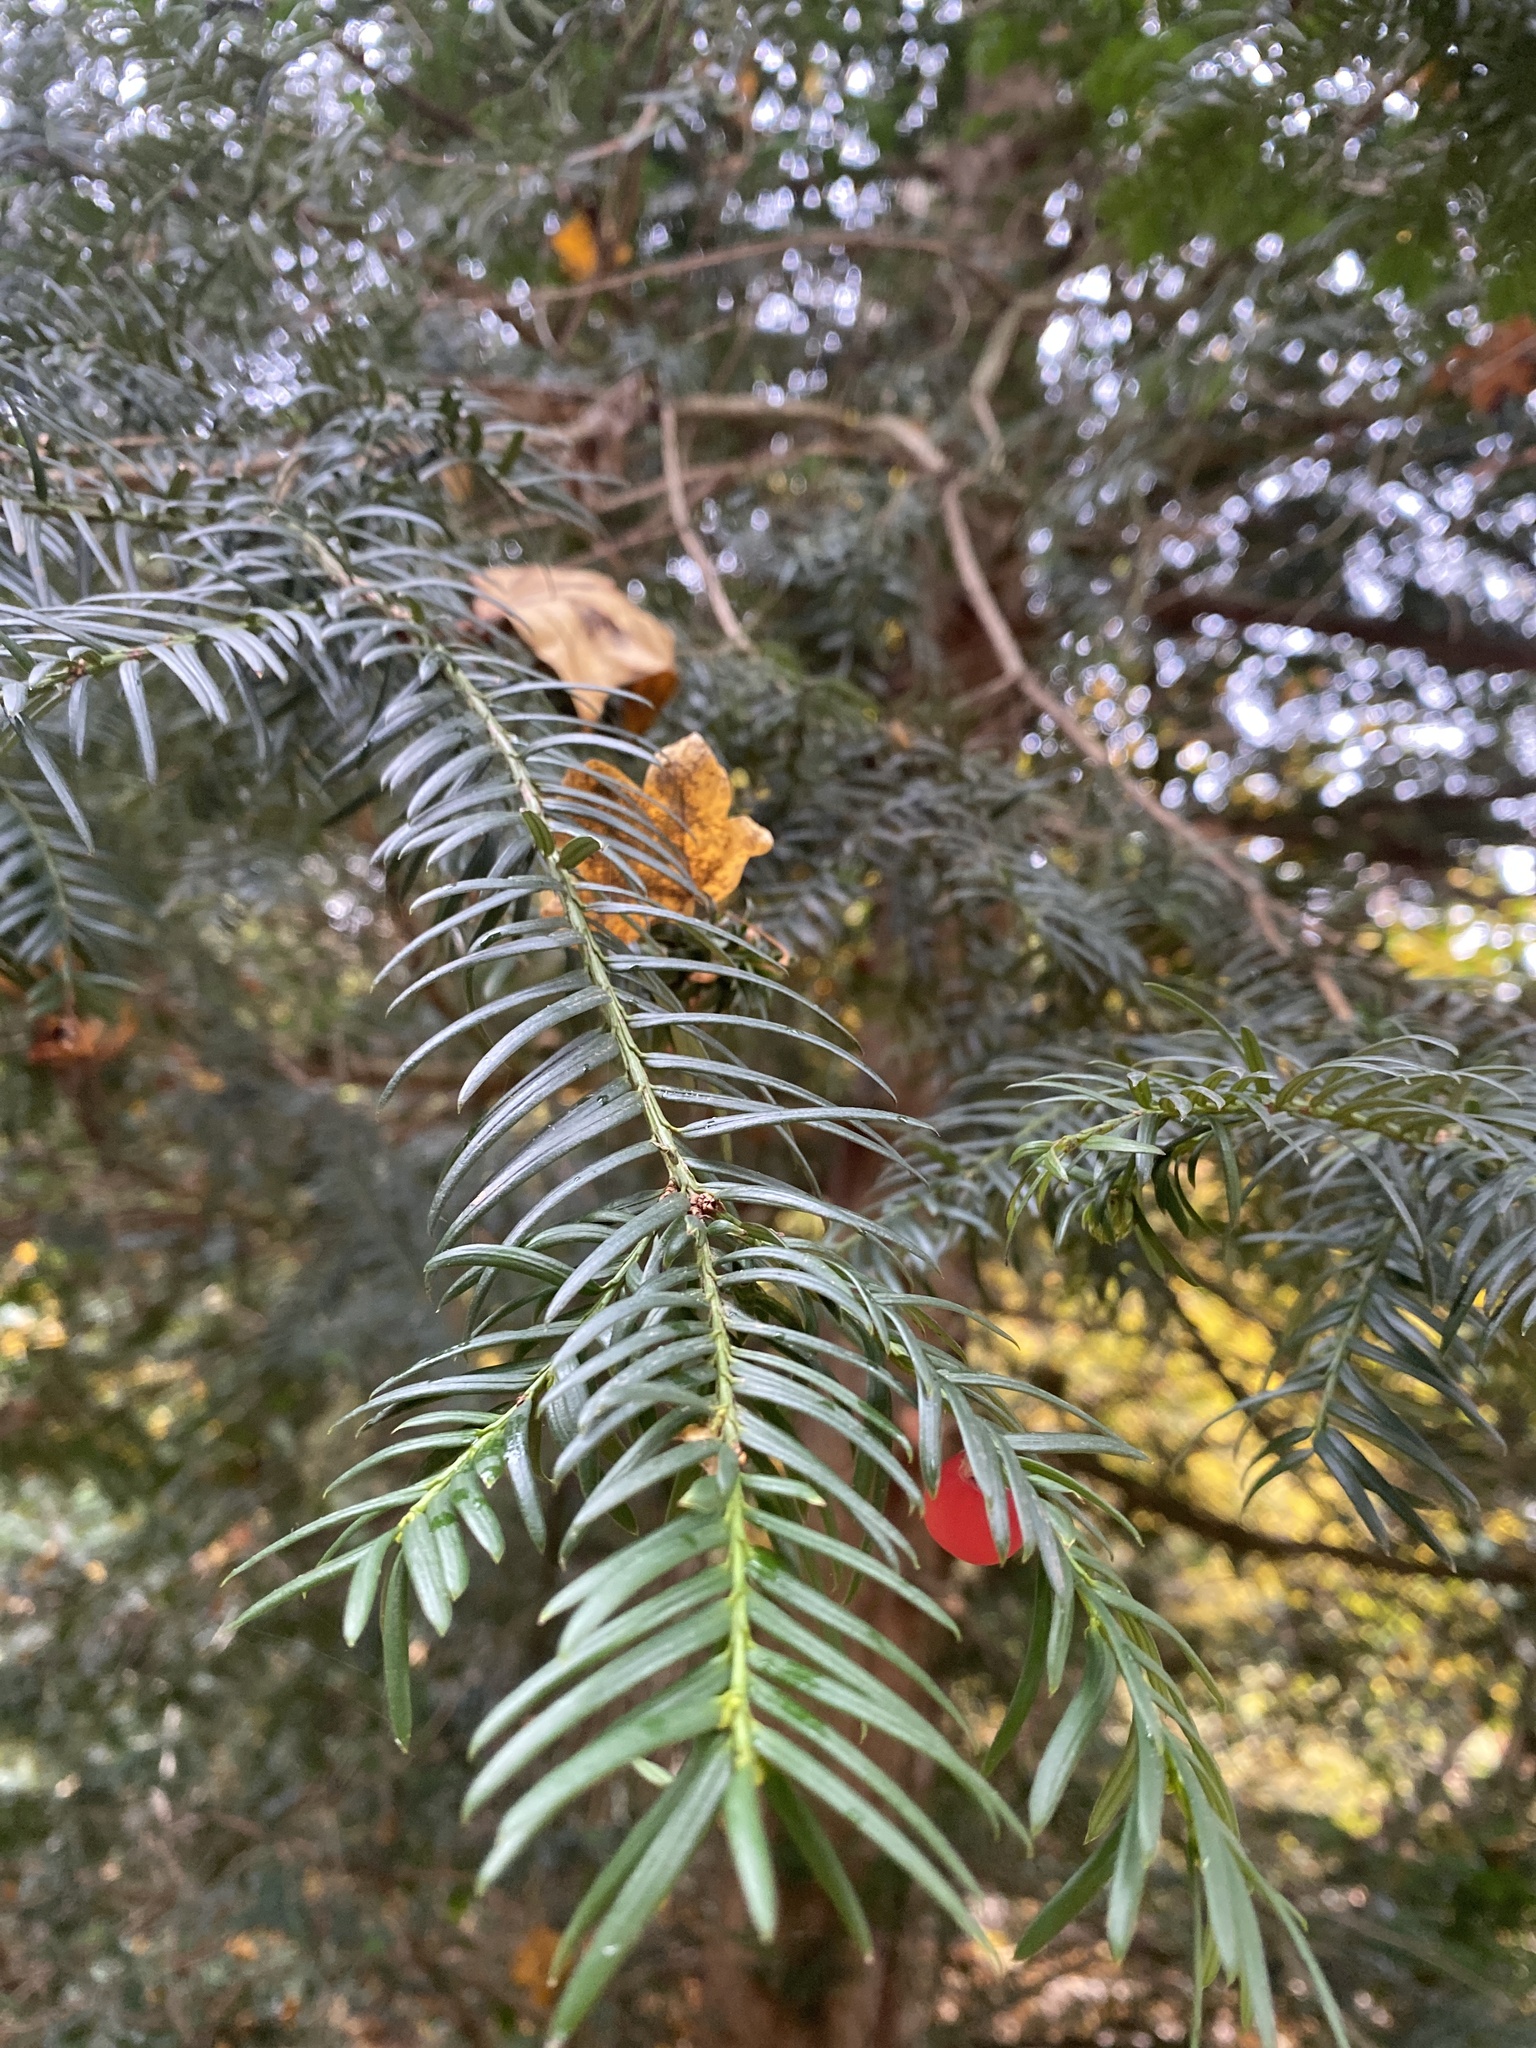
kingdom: Plantae
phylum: Tracheophyta
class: Pinopsida
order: Pinales
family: Taxaceae
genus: Taxus
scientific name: Taxus baccata
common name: Yew
